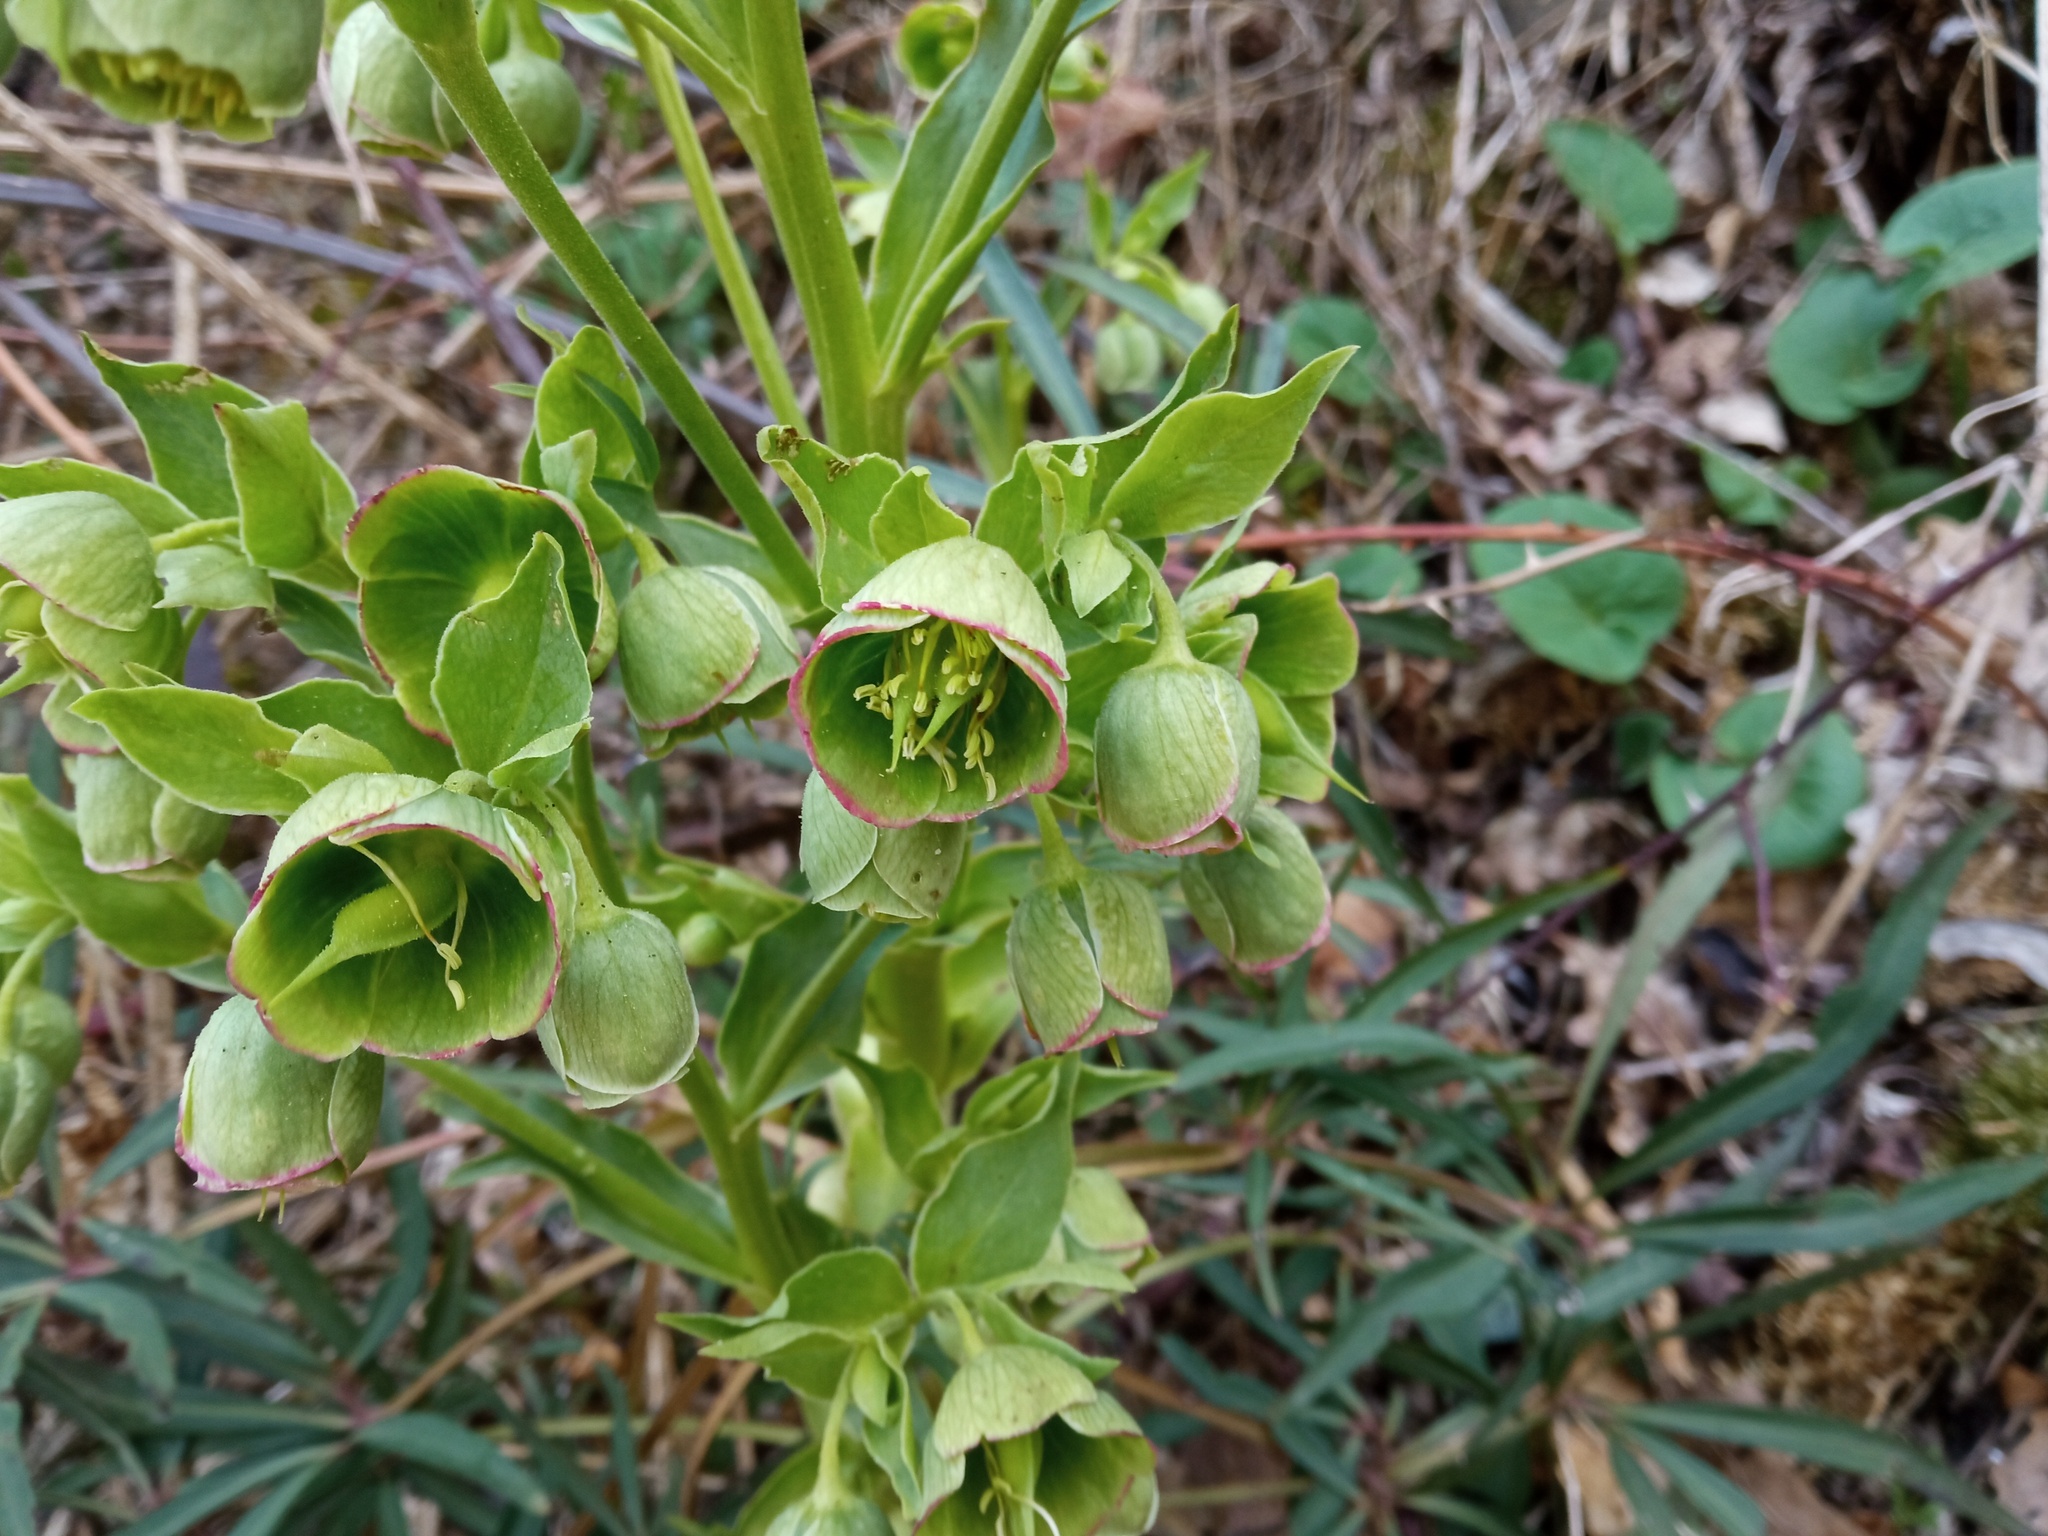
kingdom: Plantae
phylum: Tracheophyta
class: Magnoliopsida
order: Ranunculales
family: Ranunculaceae
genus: Helleborus
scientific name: Helleborus foetidus
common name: Stinking hellebore
